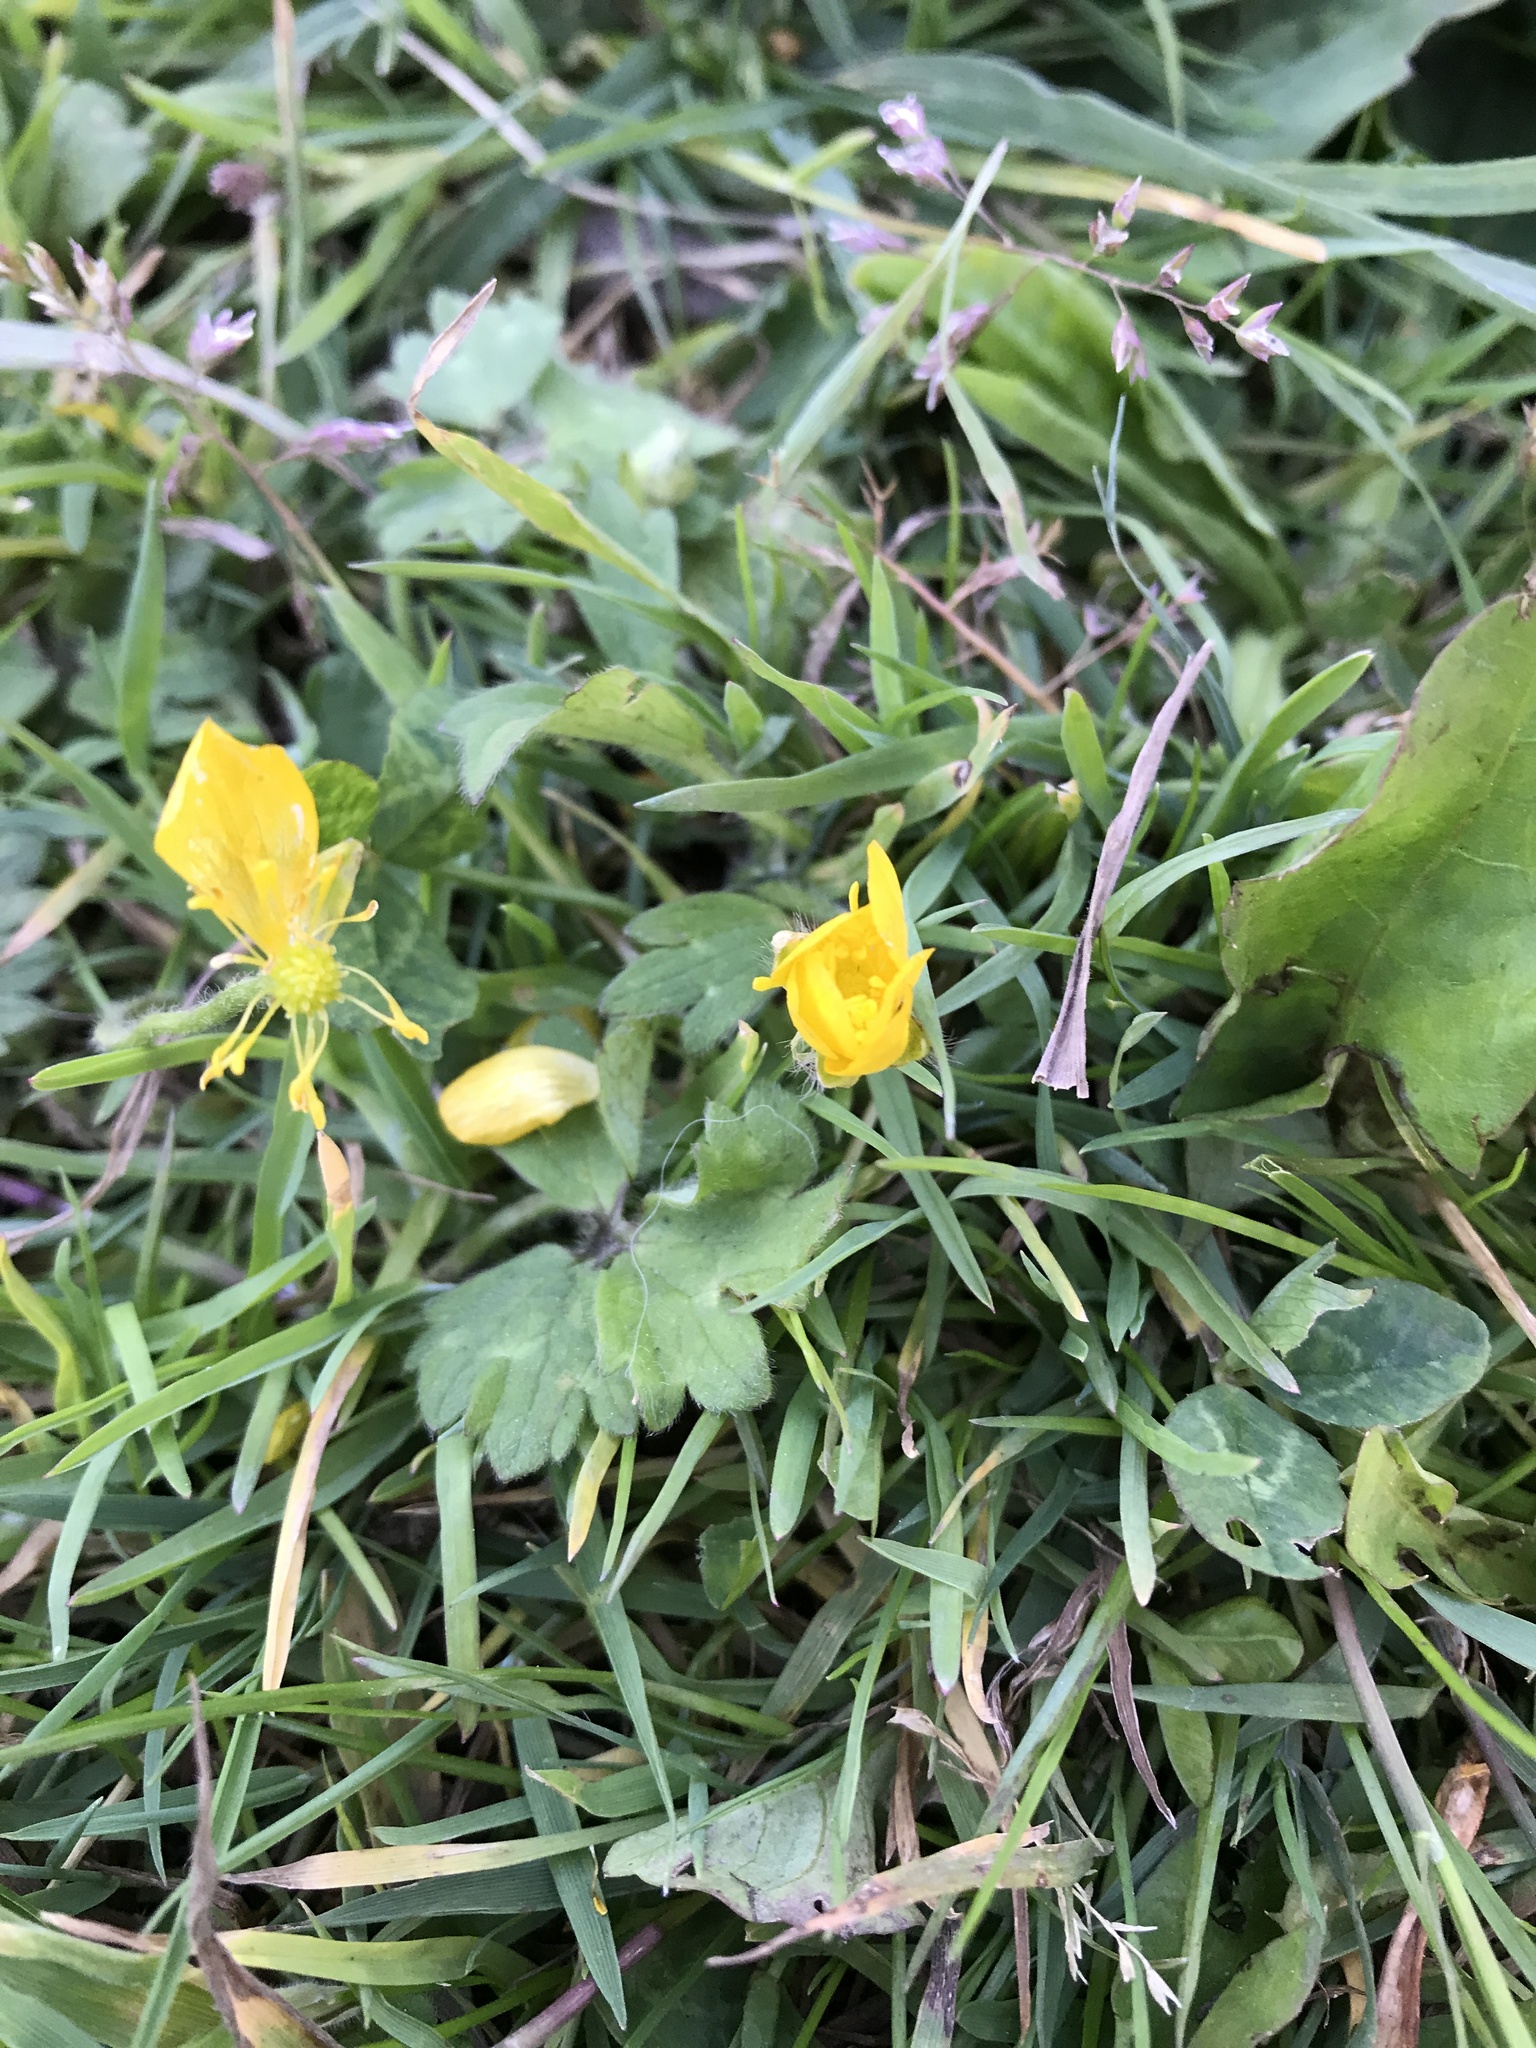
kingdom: Plantae
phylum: Tracheophyta
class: Magnoliopsida
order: Ranunculales
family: Ranunculaceae
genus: Ranunculus
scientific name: Ranunculus repens
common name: Creeping buttercup
